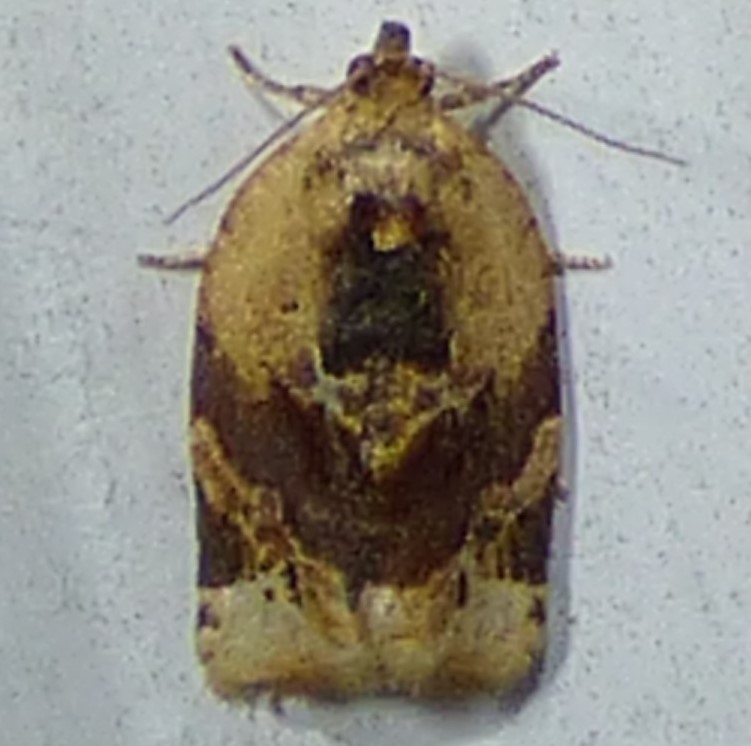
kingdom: Animalia
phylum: Arthropoda
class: Insecta
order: Lepidoptera
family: Tortricidae
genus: Argyrotaenia
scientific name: Argyrotaenia velutinana
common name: Red-banded leafroller moth
